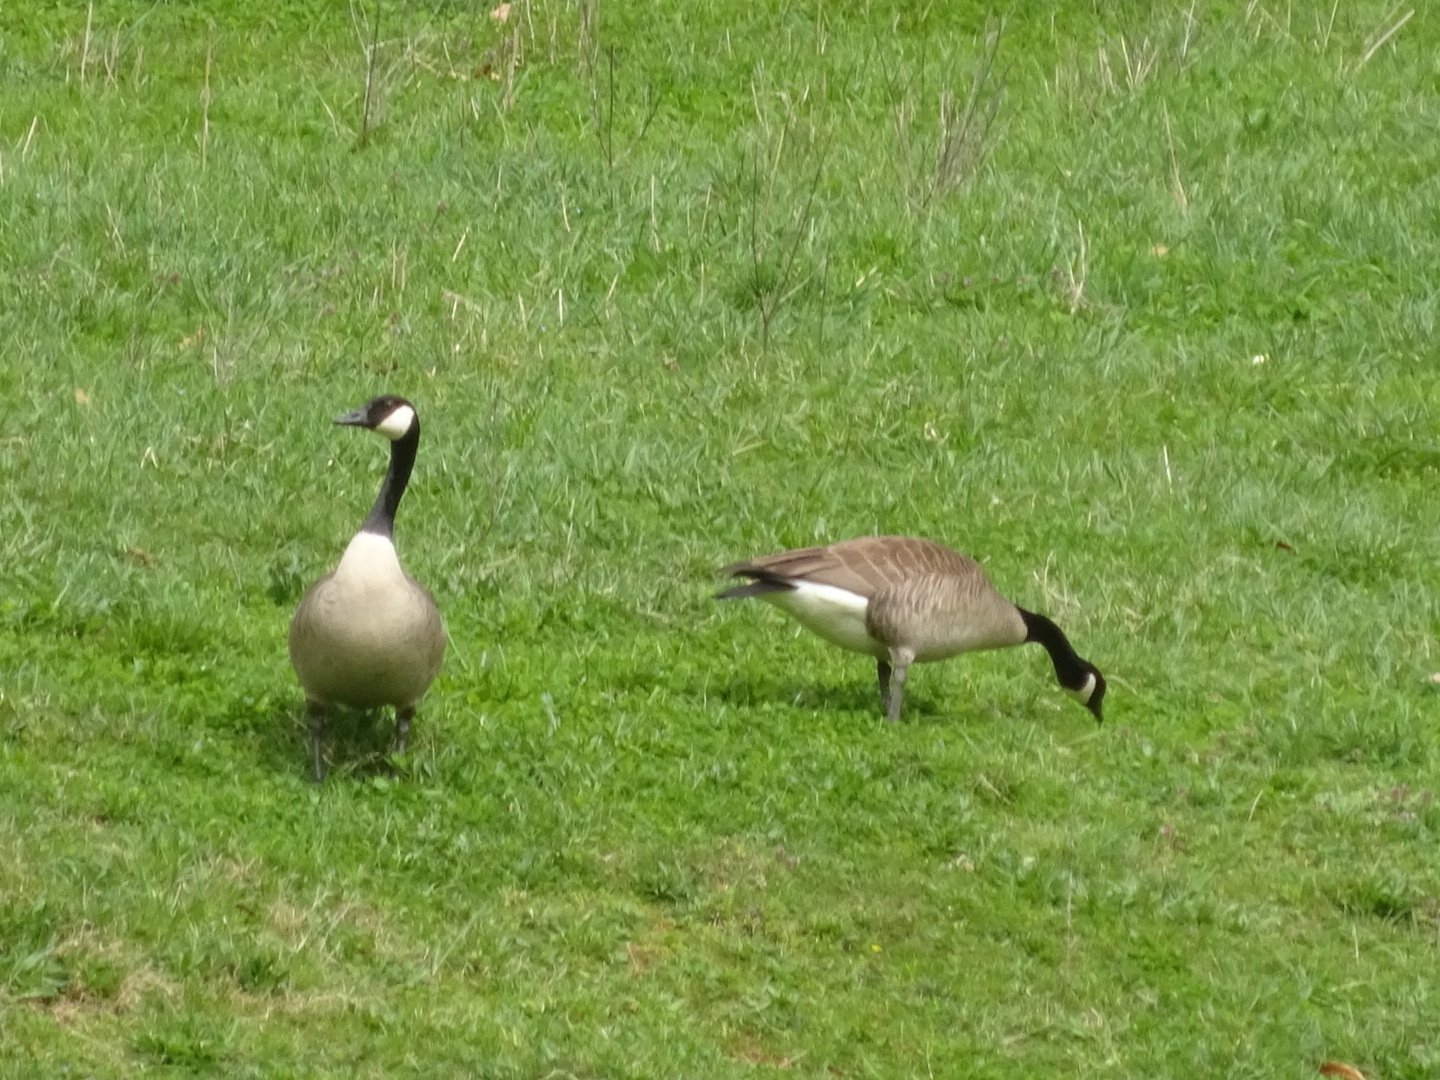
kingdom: Animalia
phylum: Chordata
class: Aves
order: Anseriformes
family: Anatidae
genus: Branta
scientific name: Branta canadensis
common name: Canada goose
